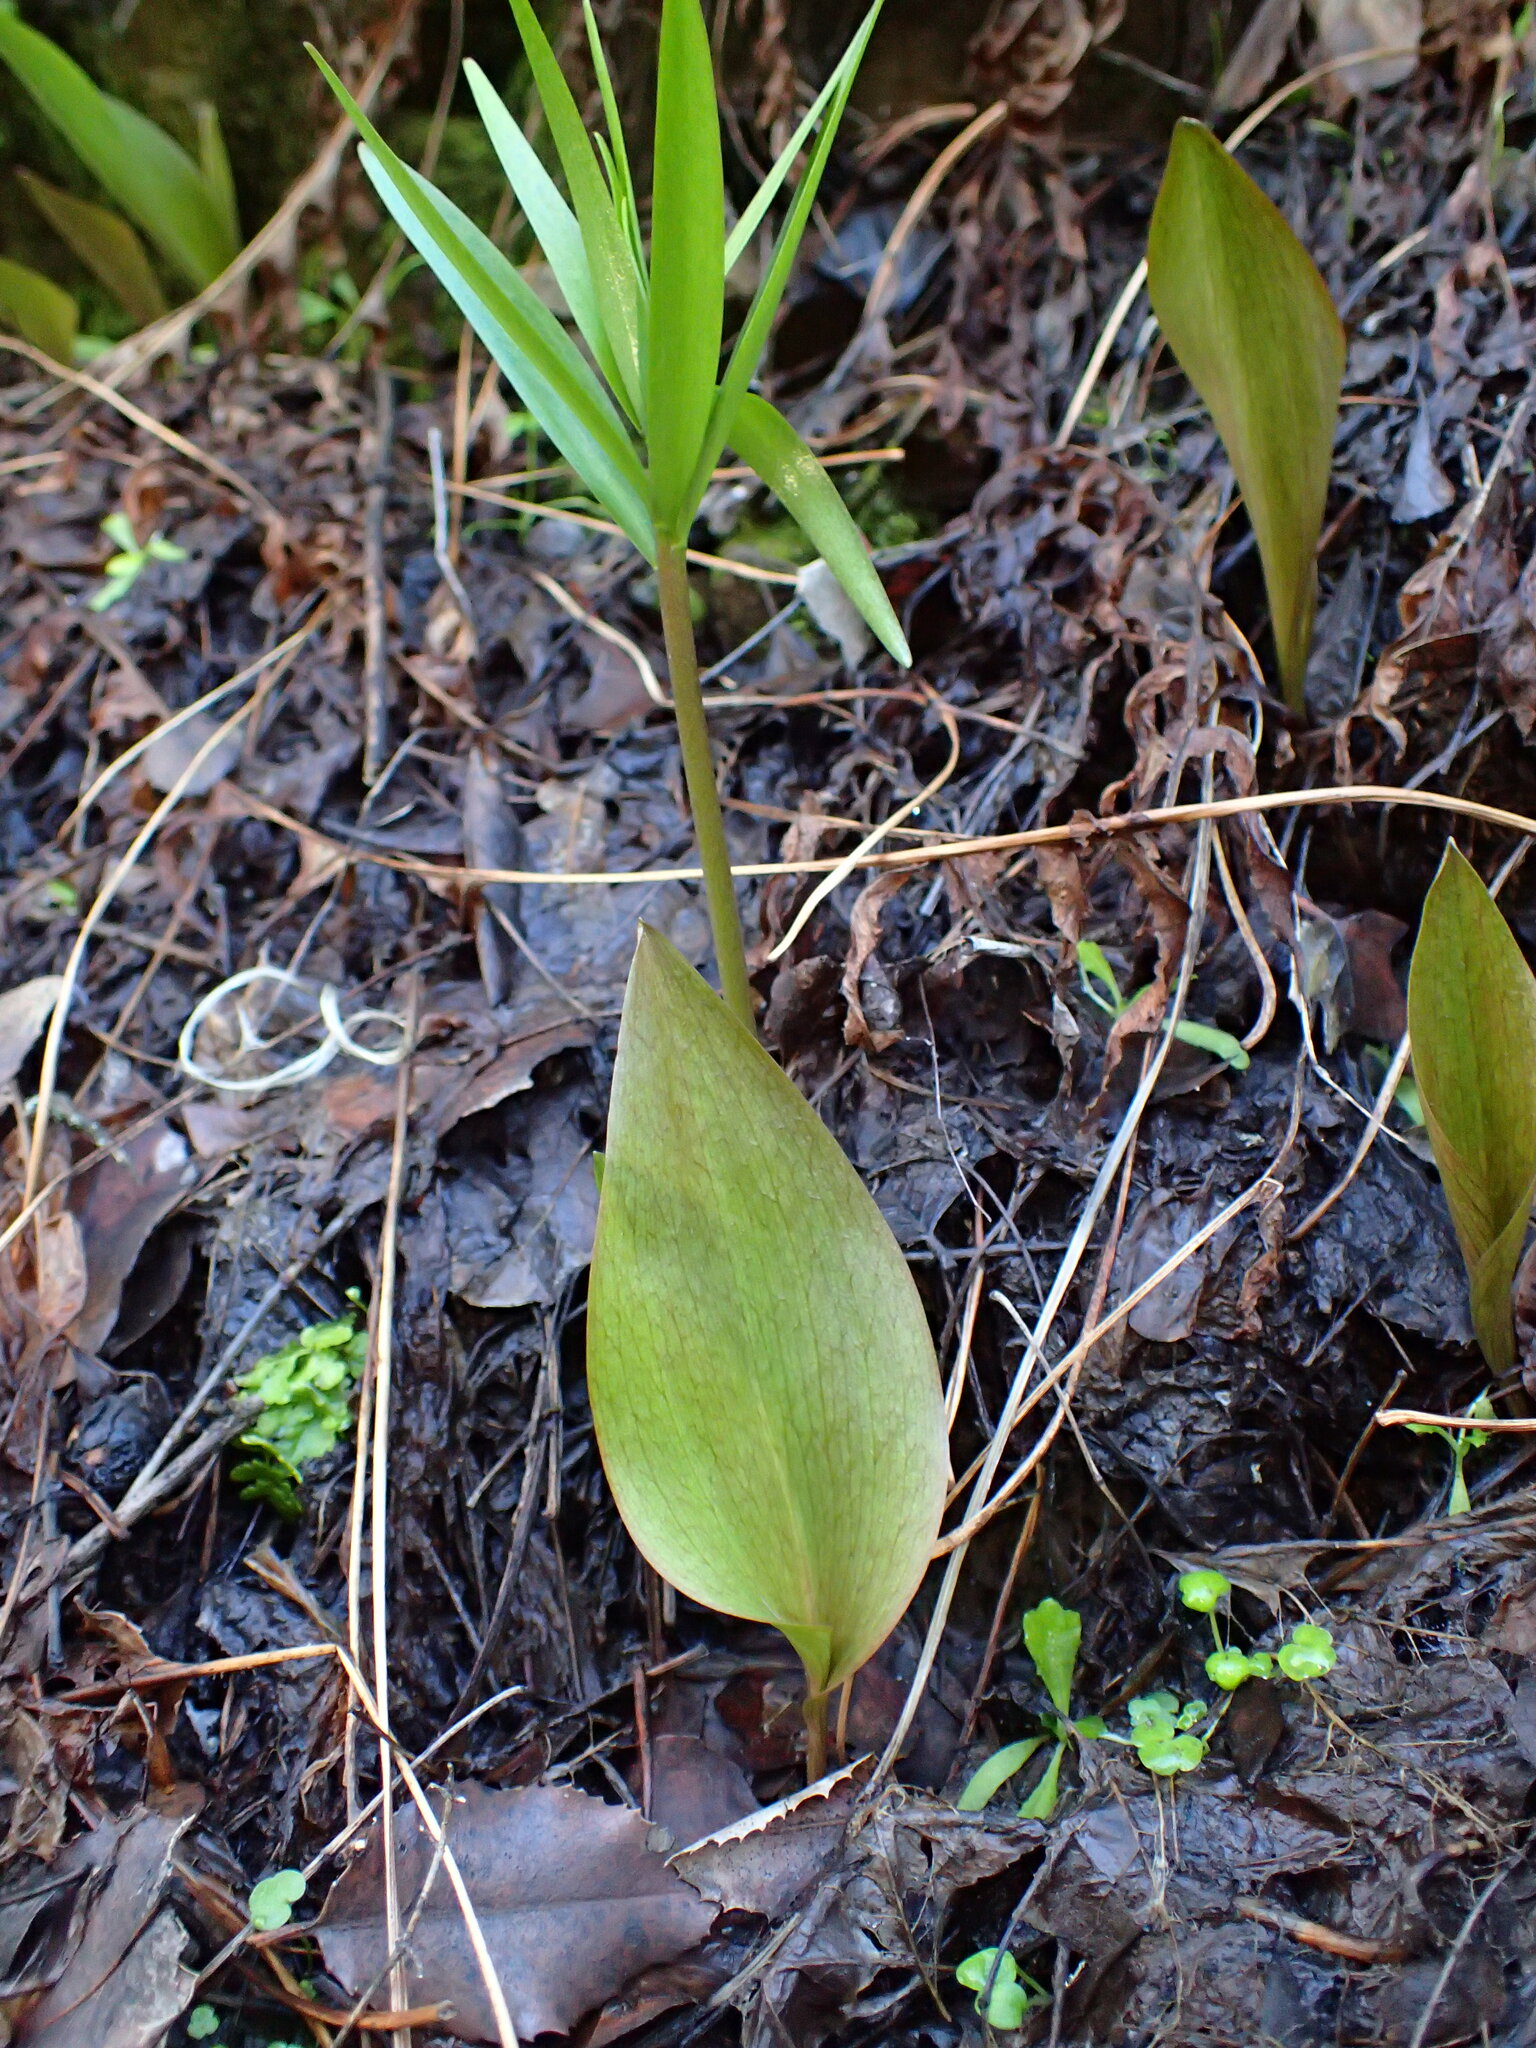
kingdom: Plantae
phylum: Tracheophyta
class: Liliopsida
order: Liliales
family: Liliaceae
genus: Fritillaria
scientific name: Fritillaria ojaiensis
